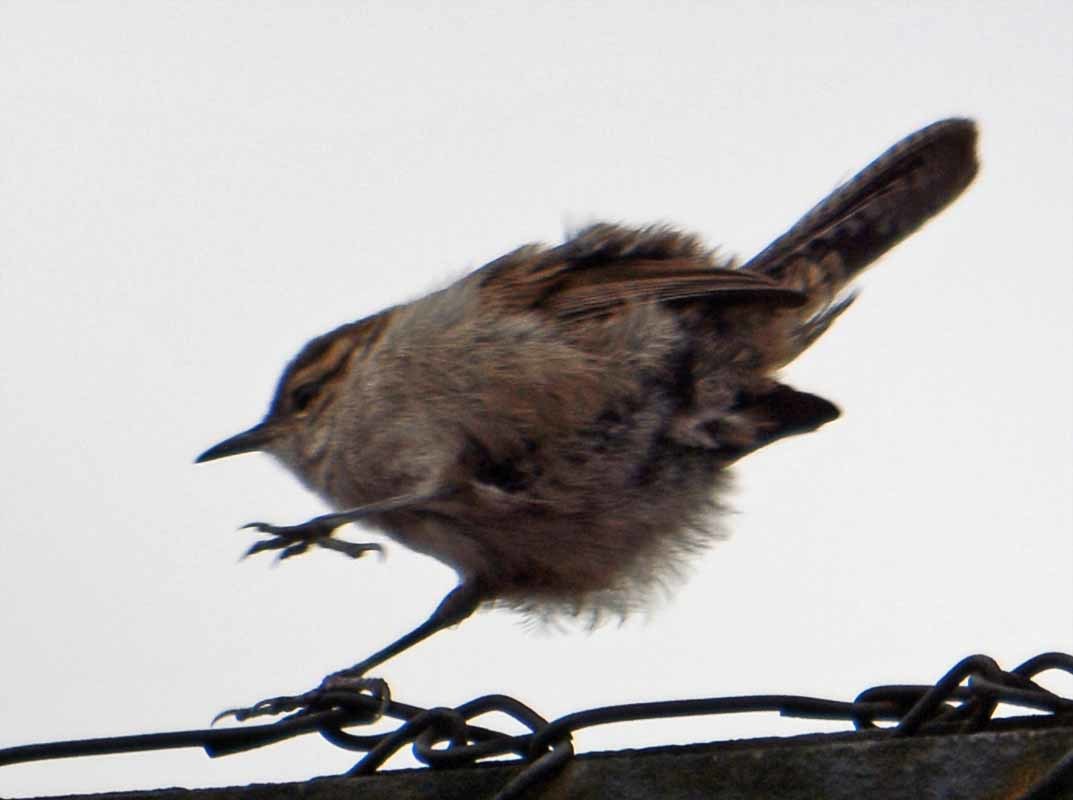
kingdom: Animalia
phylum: Chordata
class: Aves
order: Passeriformes
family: Troglodytidae
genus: Thryomanes
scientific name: Thryomanes bewickii
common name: Bewick's wren
